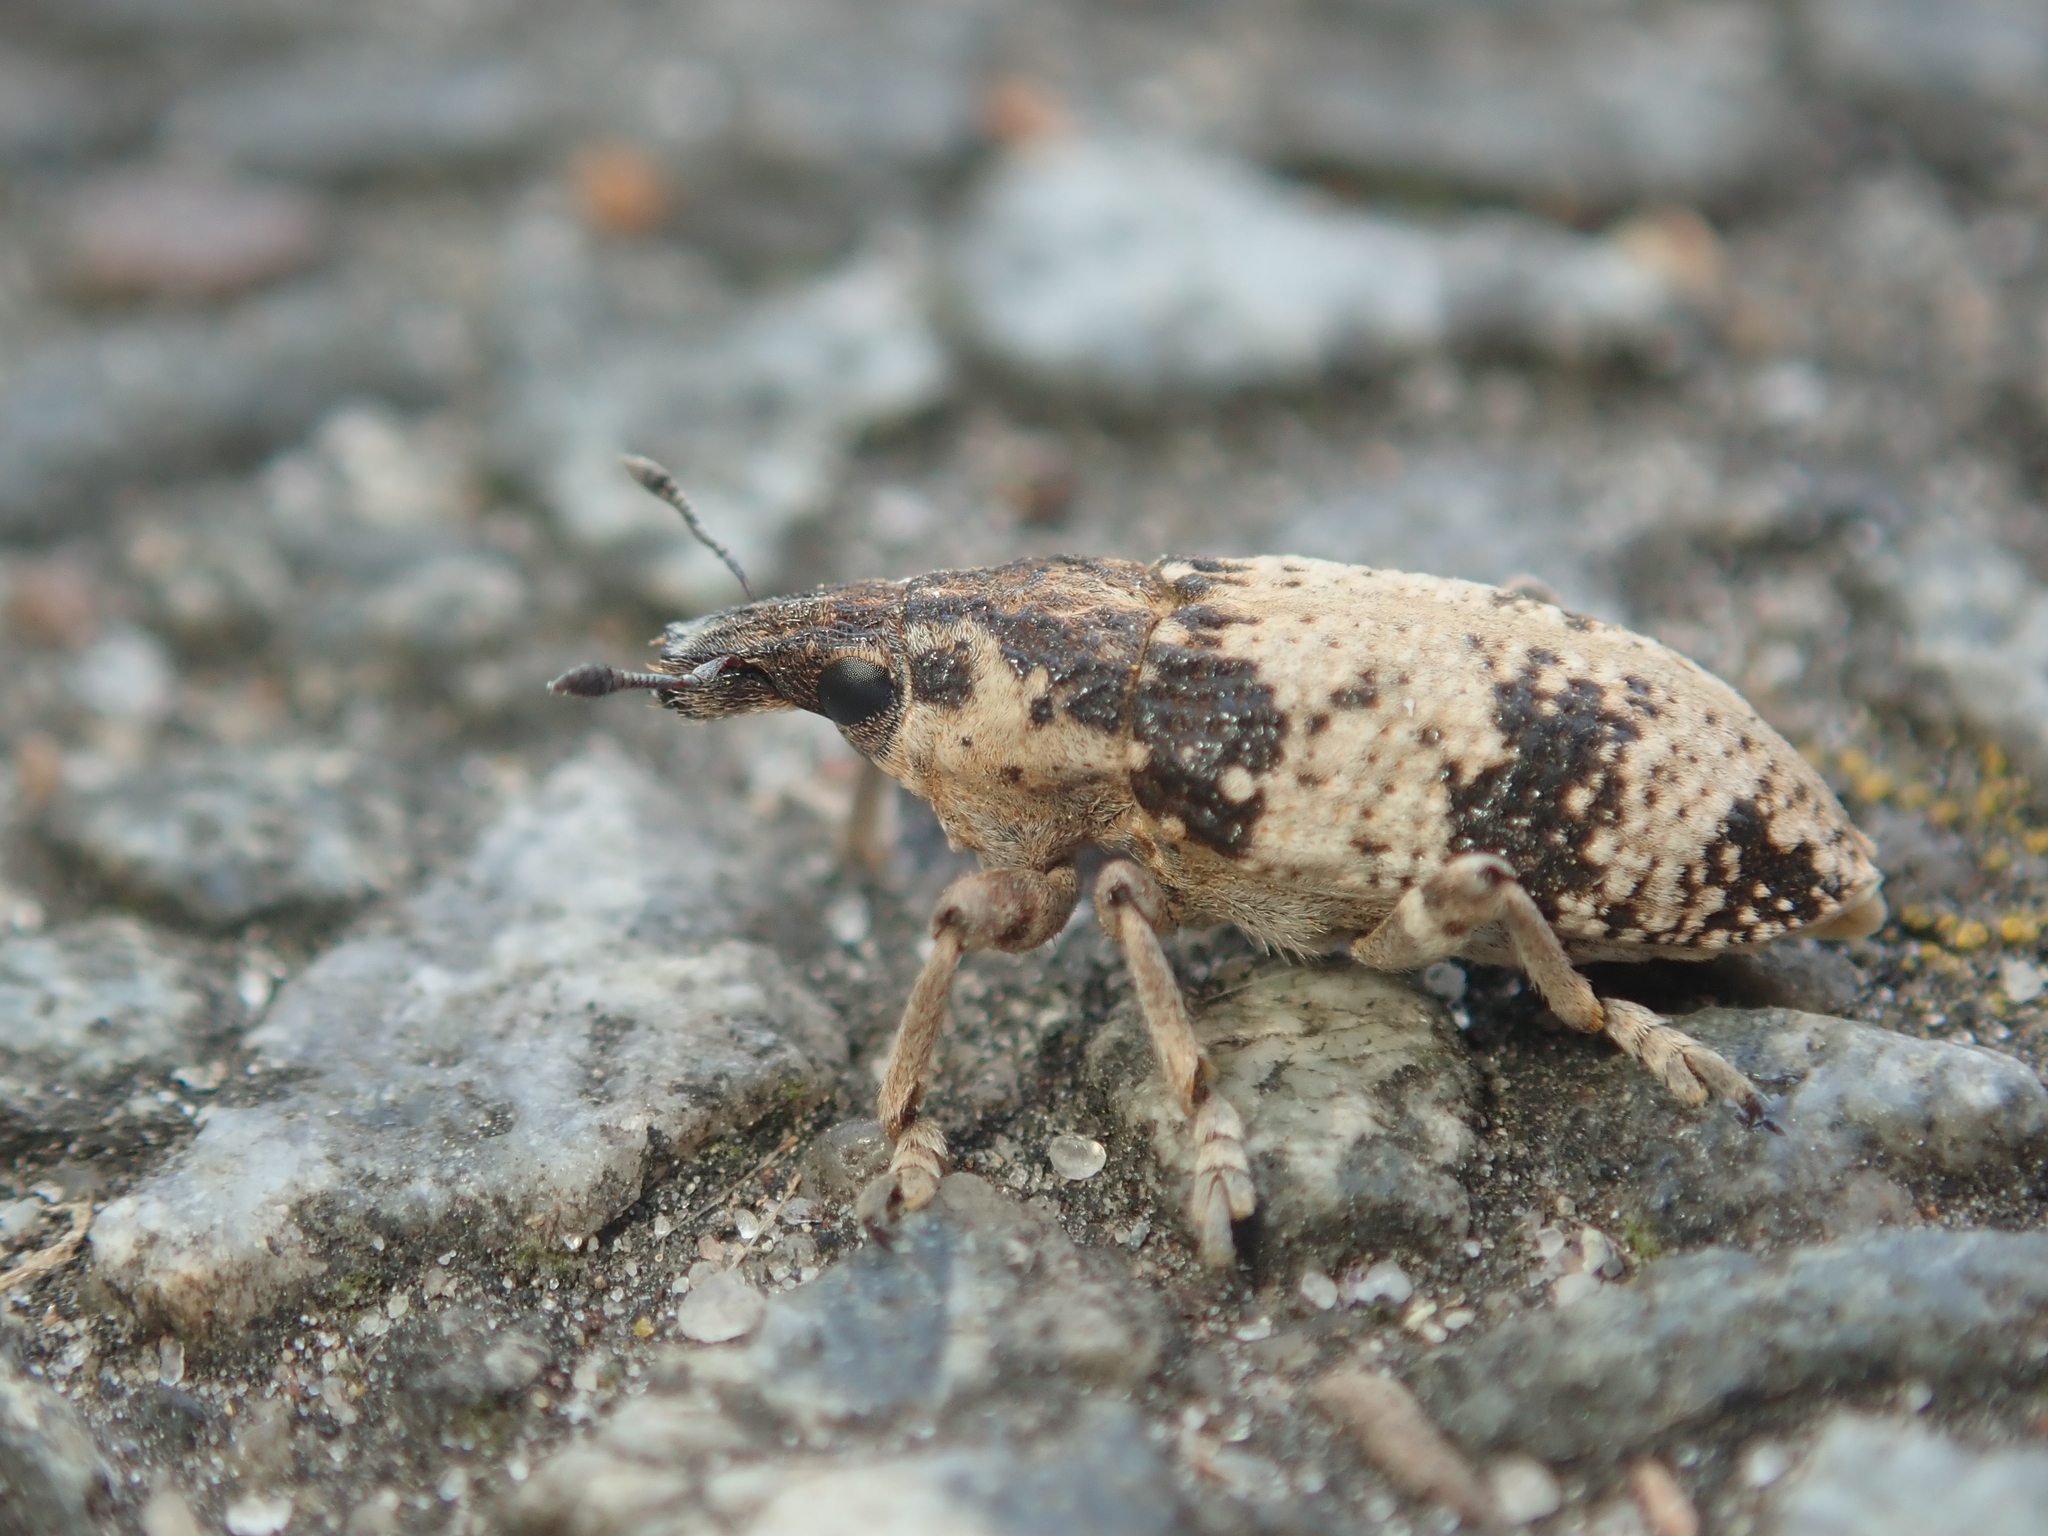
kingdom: Animalia
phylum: Arthropoda
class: Insecta
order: Coleoptera
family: Curculionidae
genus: Bothynoderes
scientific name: Bothynoderes affinis
